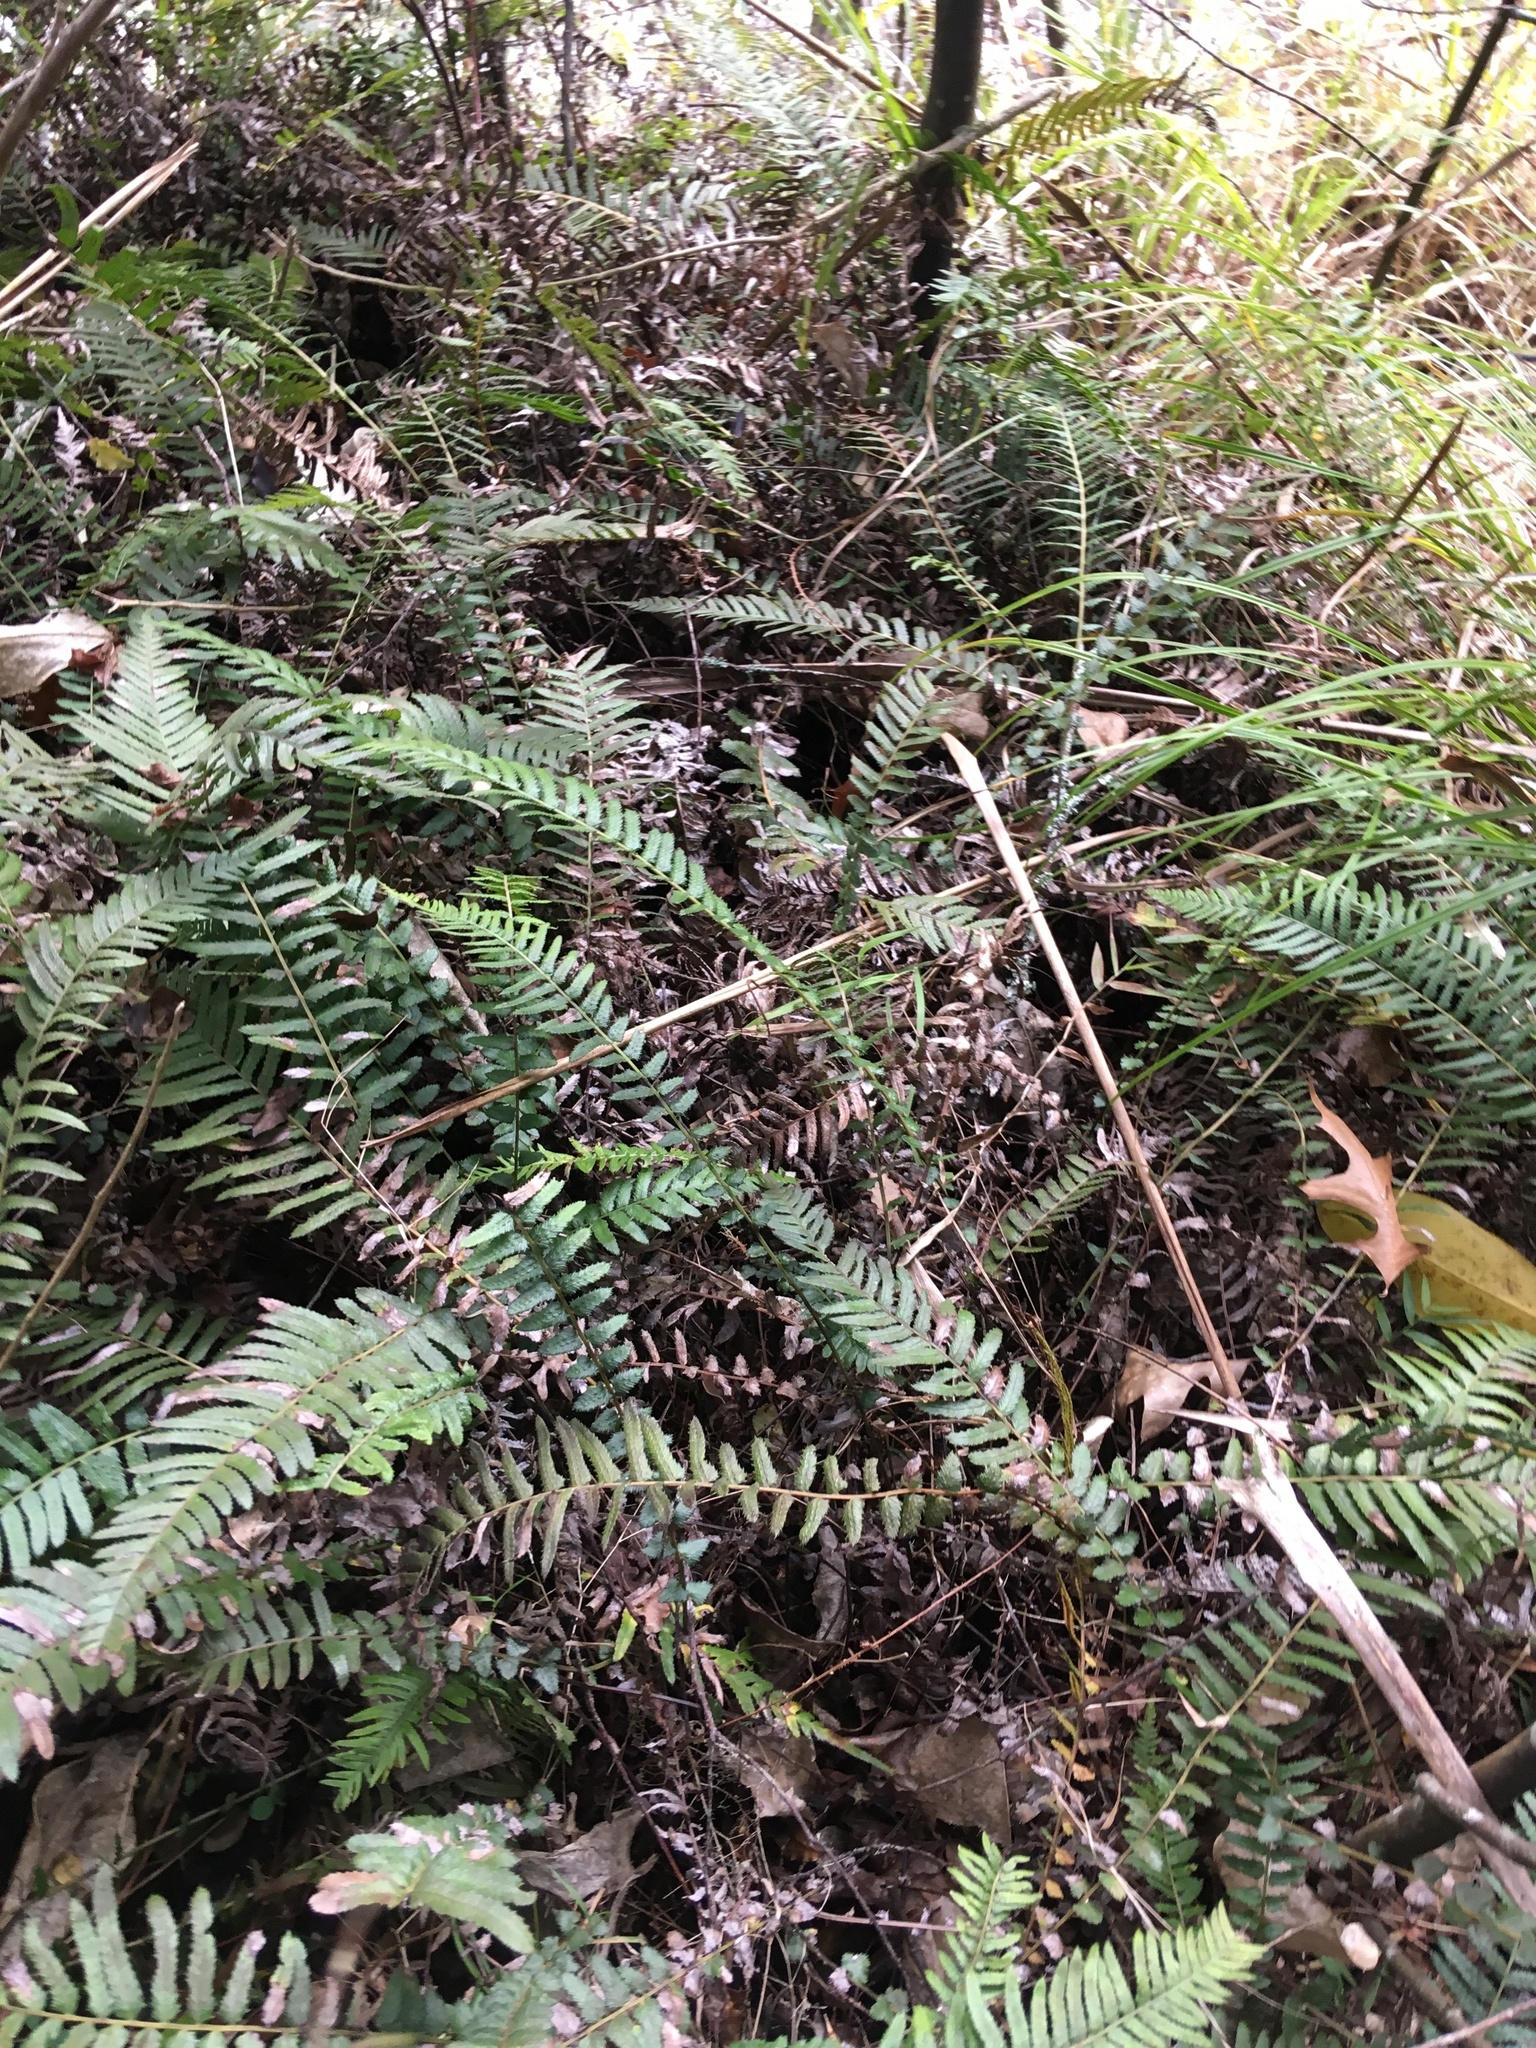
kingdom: Plantae
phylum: Tracheophyta
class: Polypodiopsida
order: Polypodiales
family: Blechnaceae
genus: Doodia
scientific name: Doodia australis
